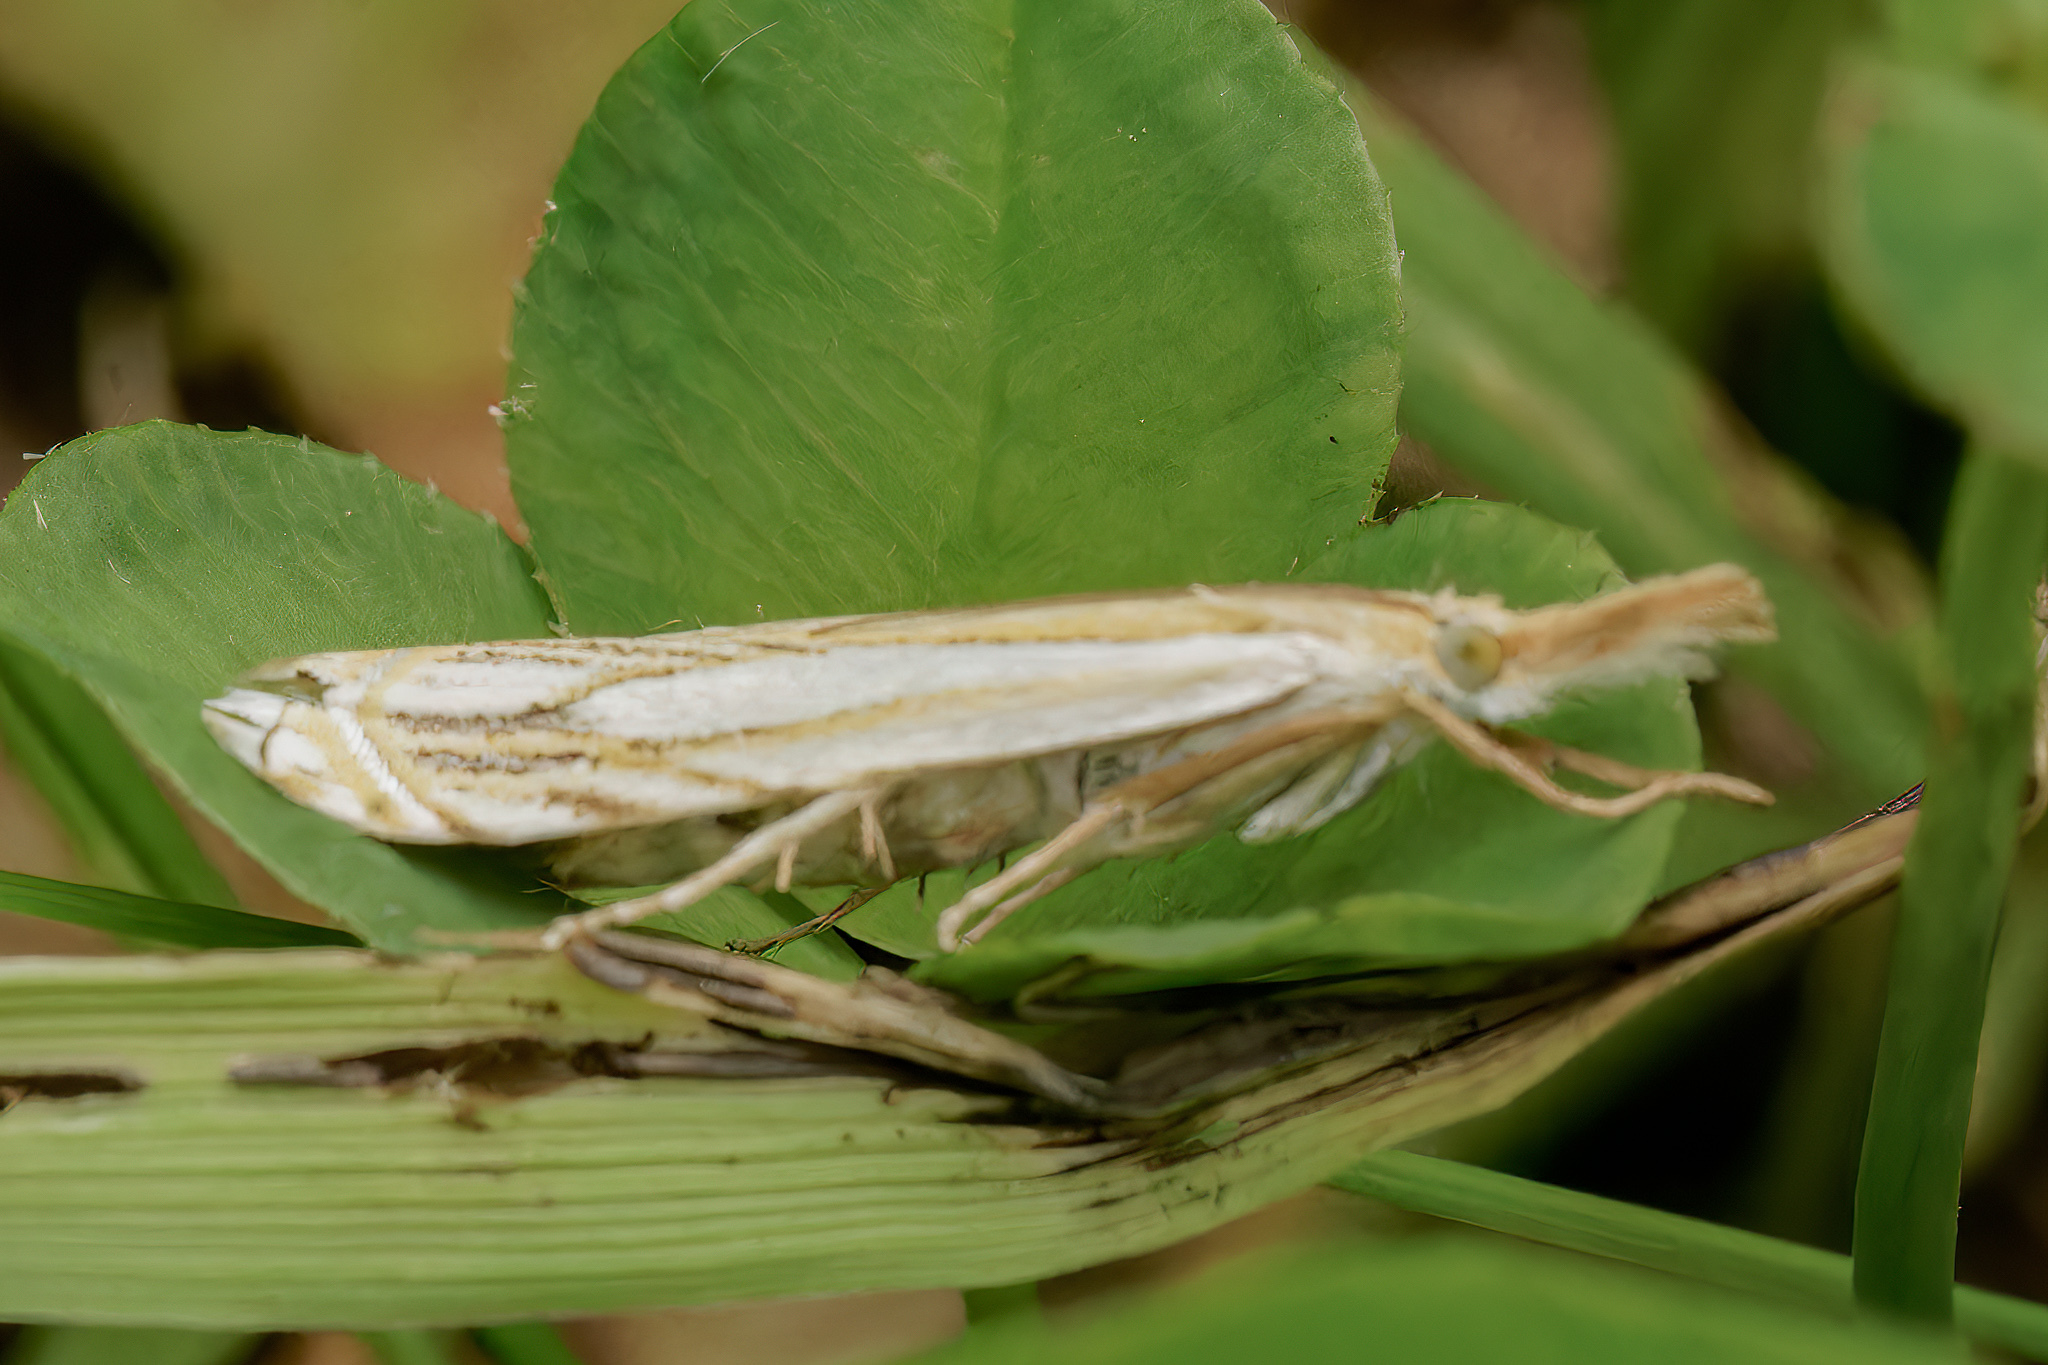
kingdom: Animalia
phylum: Arthropoda
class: Insecta
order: Lepidoptera
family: Crambidae
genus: Crambus
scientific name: Crambus saltuellus
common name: Pasture grass-veneer
